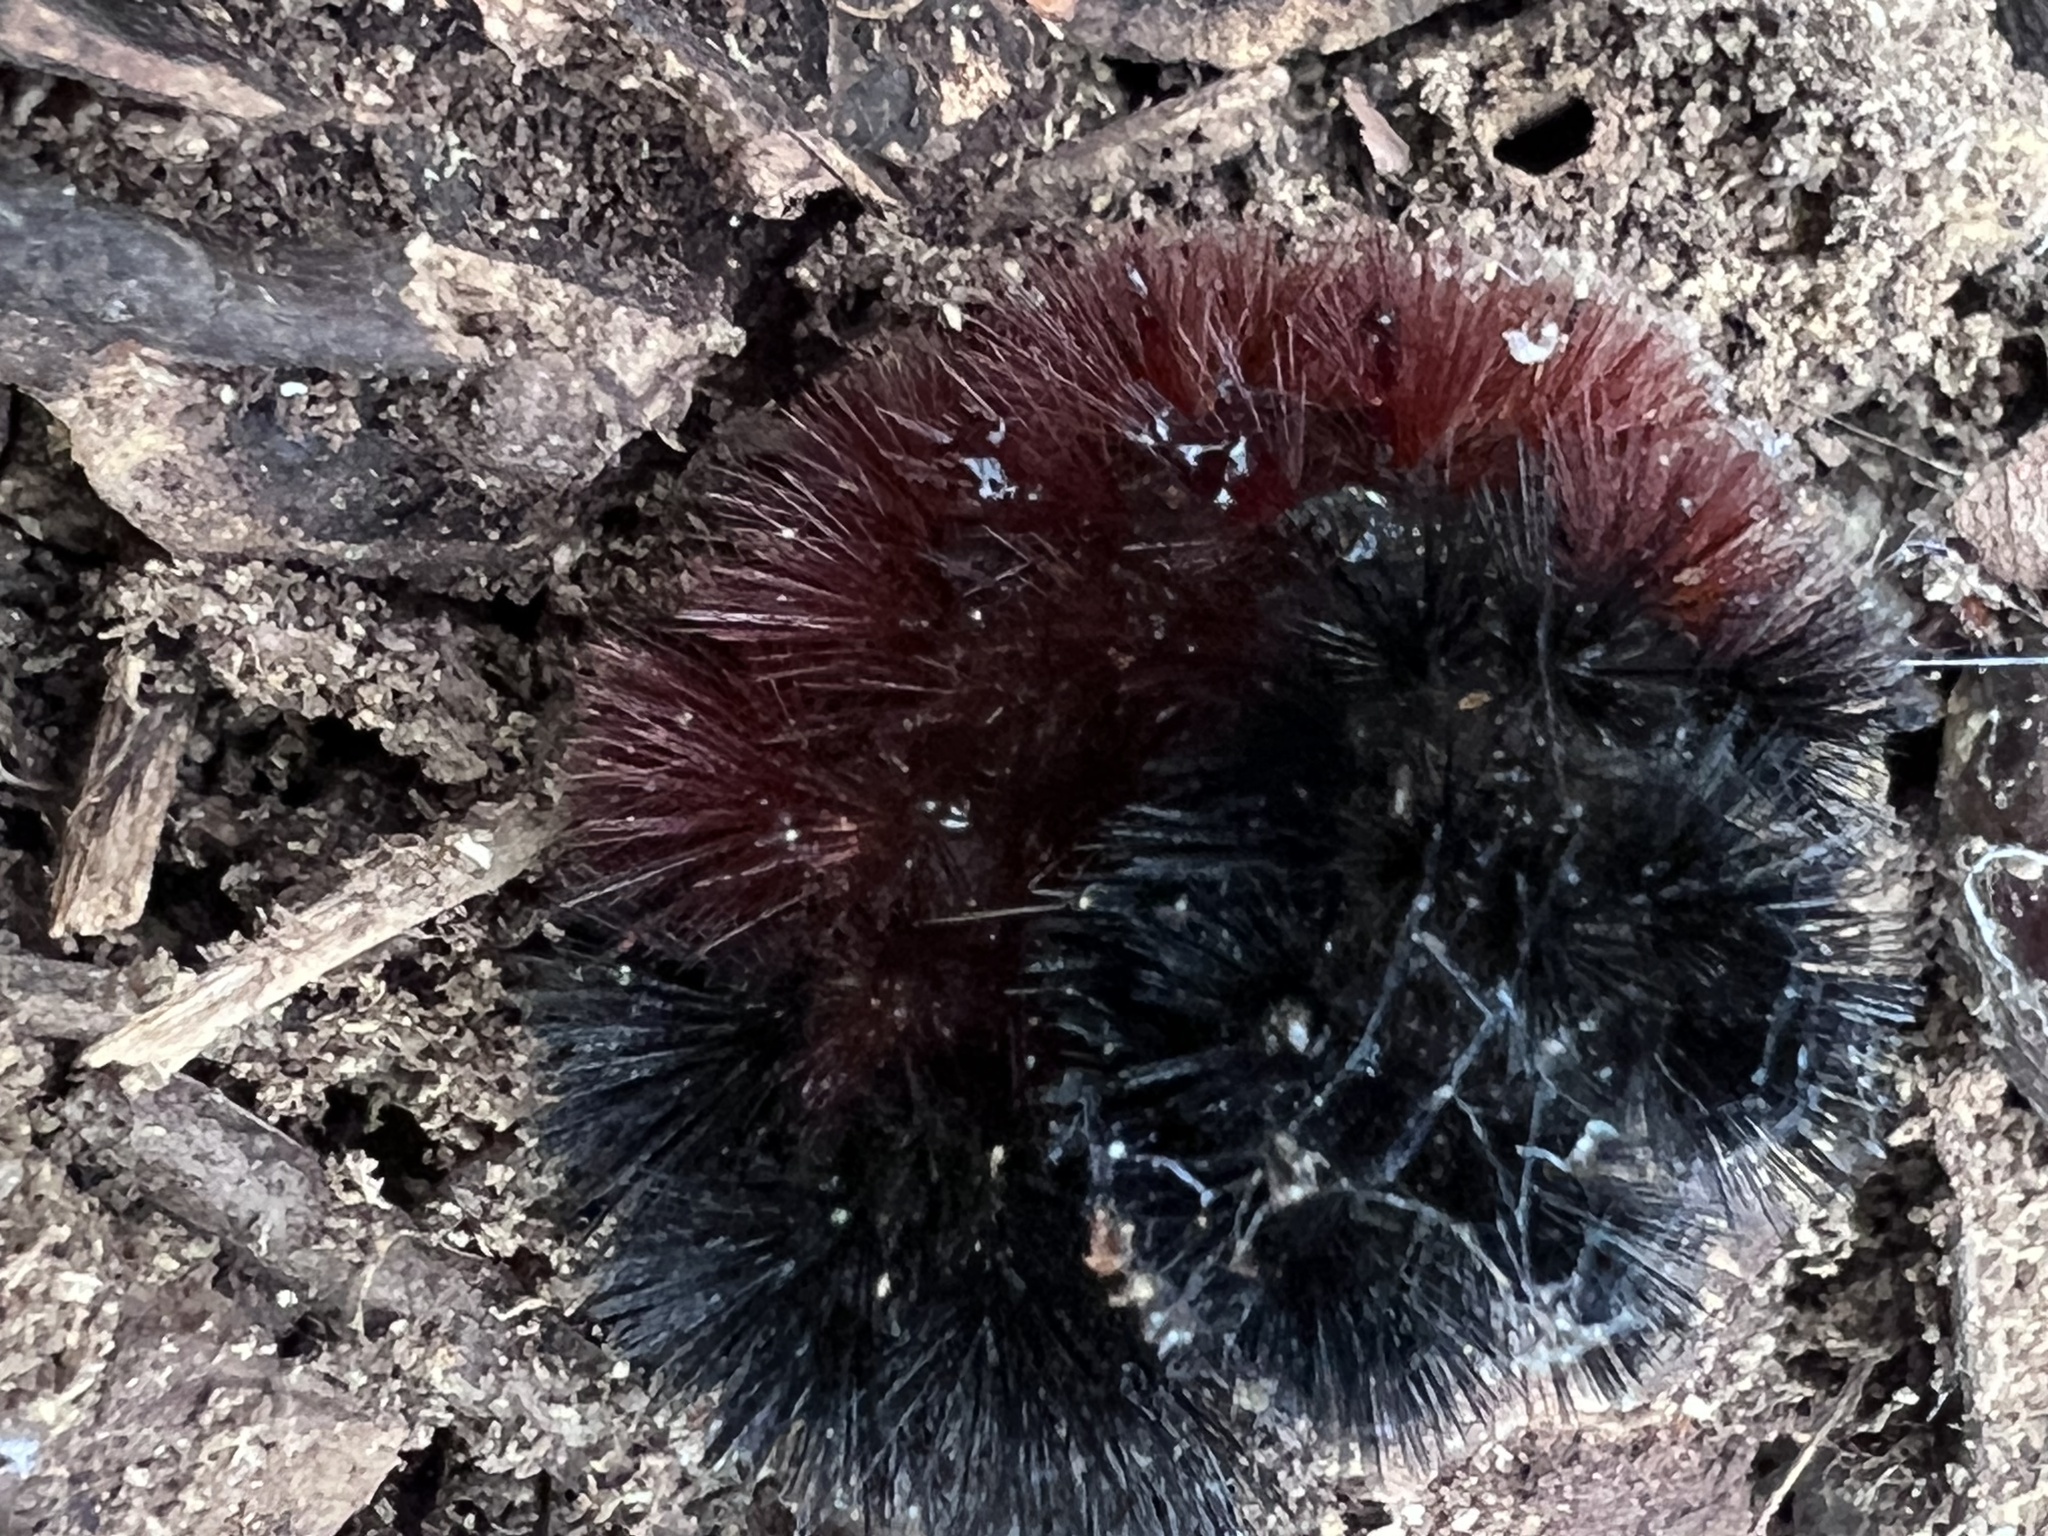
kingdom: Animalia
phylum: Arthropoda
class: Insecta
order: Lepidoptera
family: Erebidae
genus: Pyrrharctia
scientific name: Pyrrharctia isabella
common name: Isabella tiger moth
